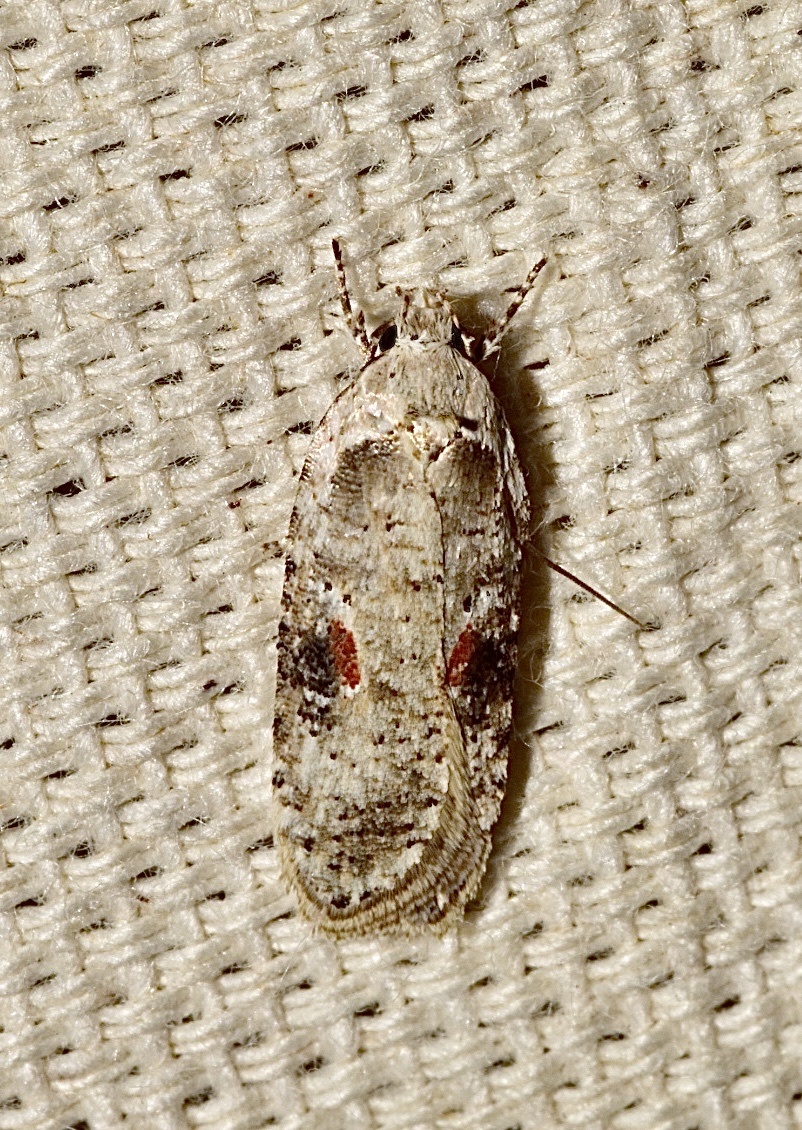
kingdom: Animalia
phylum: Arthropoda
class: Insecta
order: Lepidoptera
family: Depressariidae
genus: Agonopterix
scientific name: Agonopterix alstroemeriana
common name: Moth
